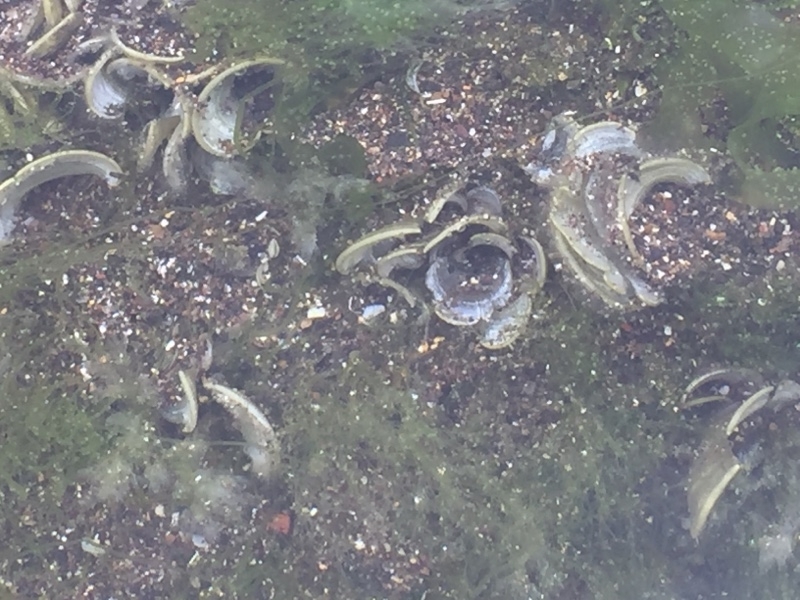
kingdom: Chromista
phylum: Ochrophyta
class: Phaeophyceae
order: Dictyotales
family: Dictyotaceae
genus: Padina
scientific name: Padina pavonica
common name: Turkey feather alga
